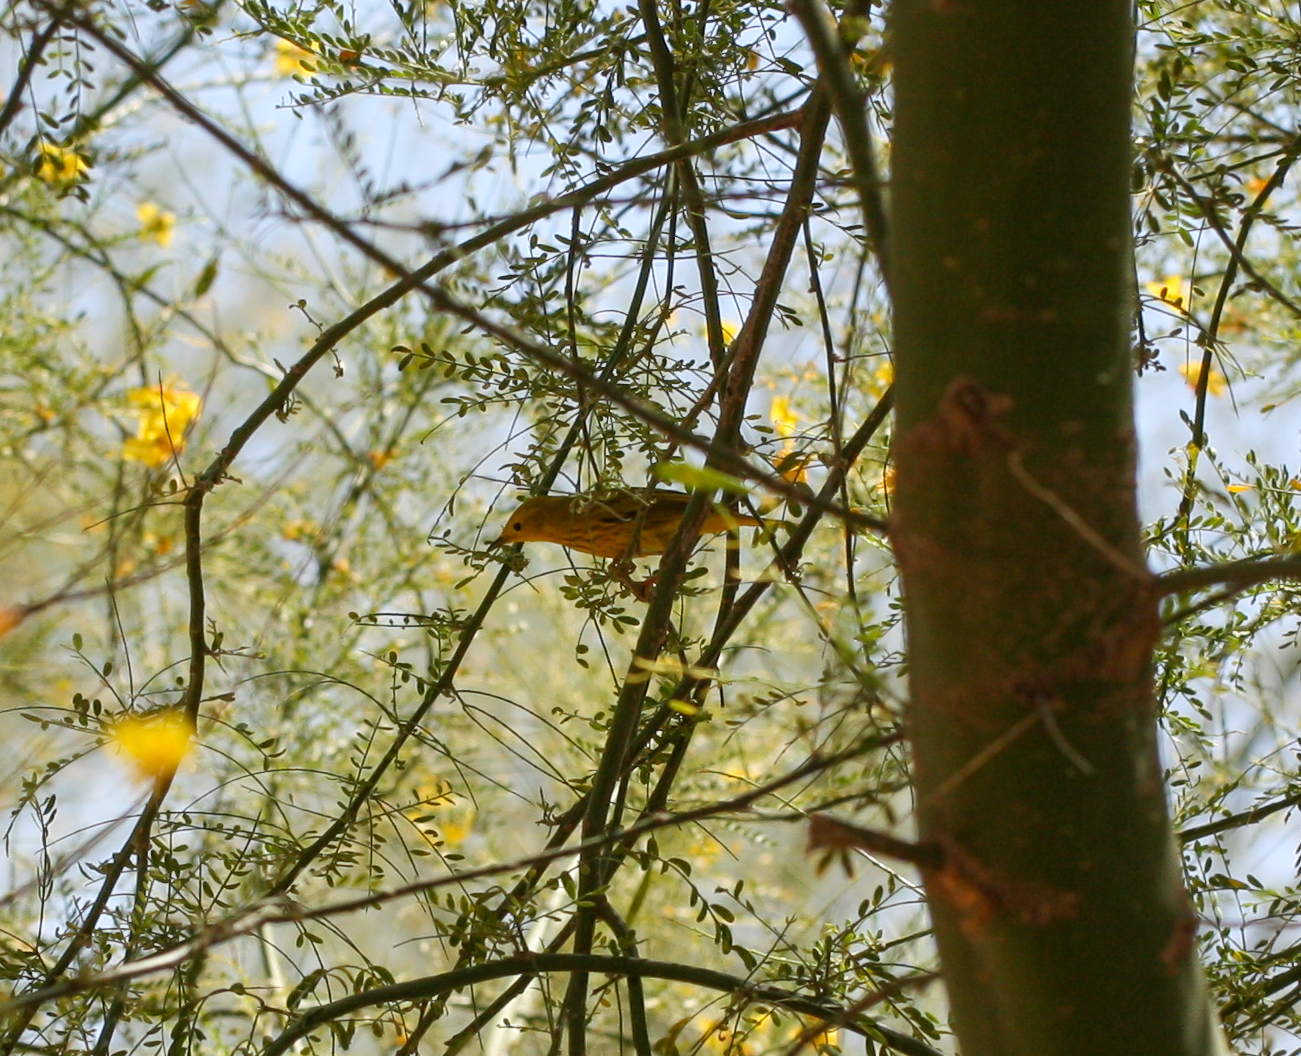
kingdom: Animalia
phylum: Chordata
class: Aves
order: Passeriformes
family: Parulidae
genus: Setophaga
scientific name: Setophaga petechia
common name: Yellow warbler
